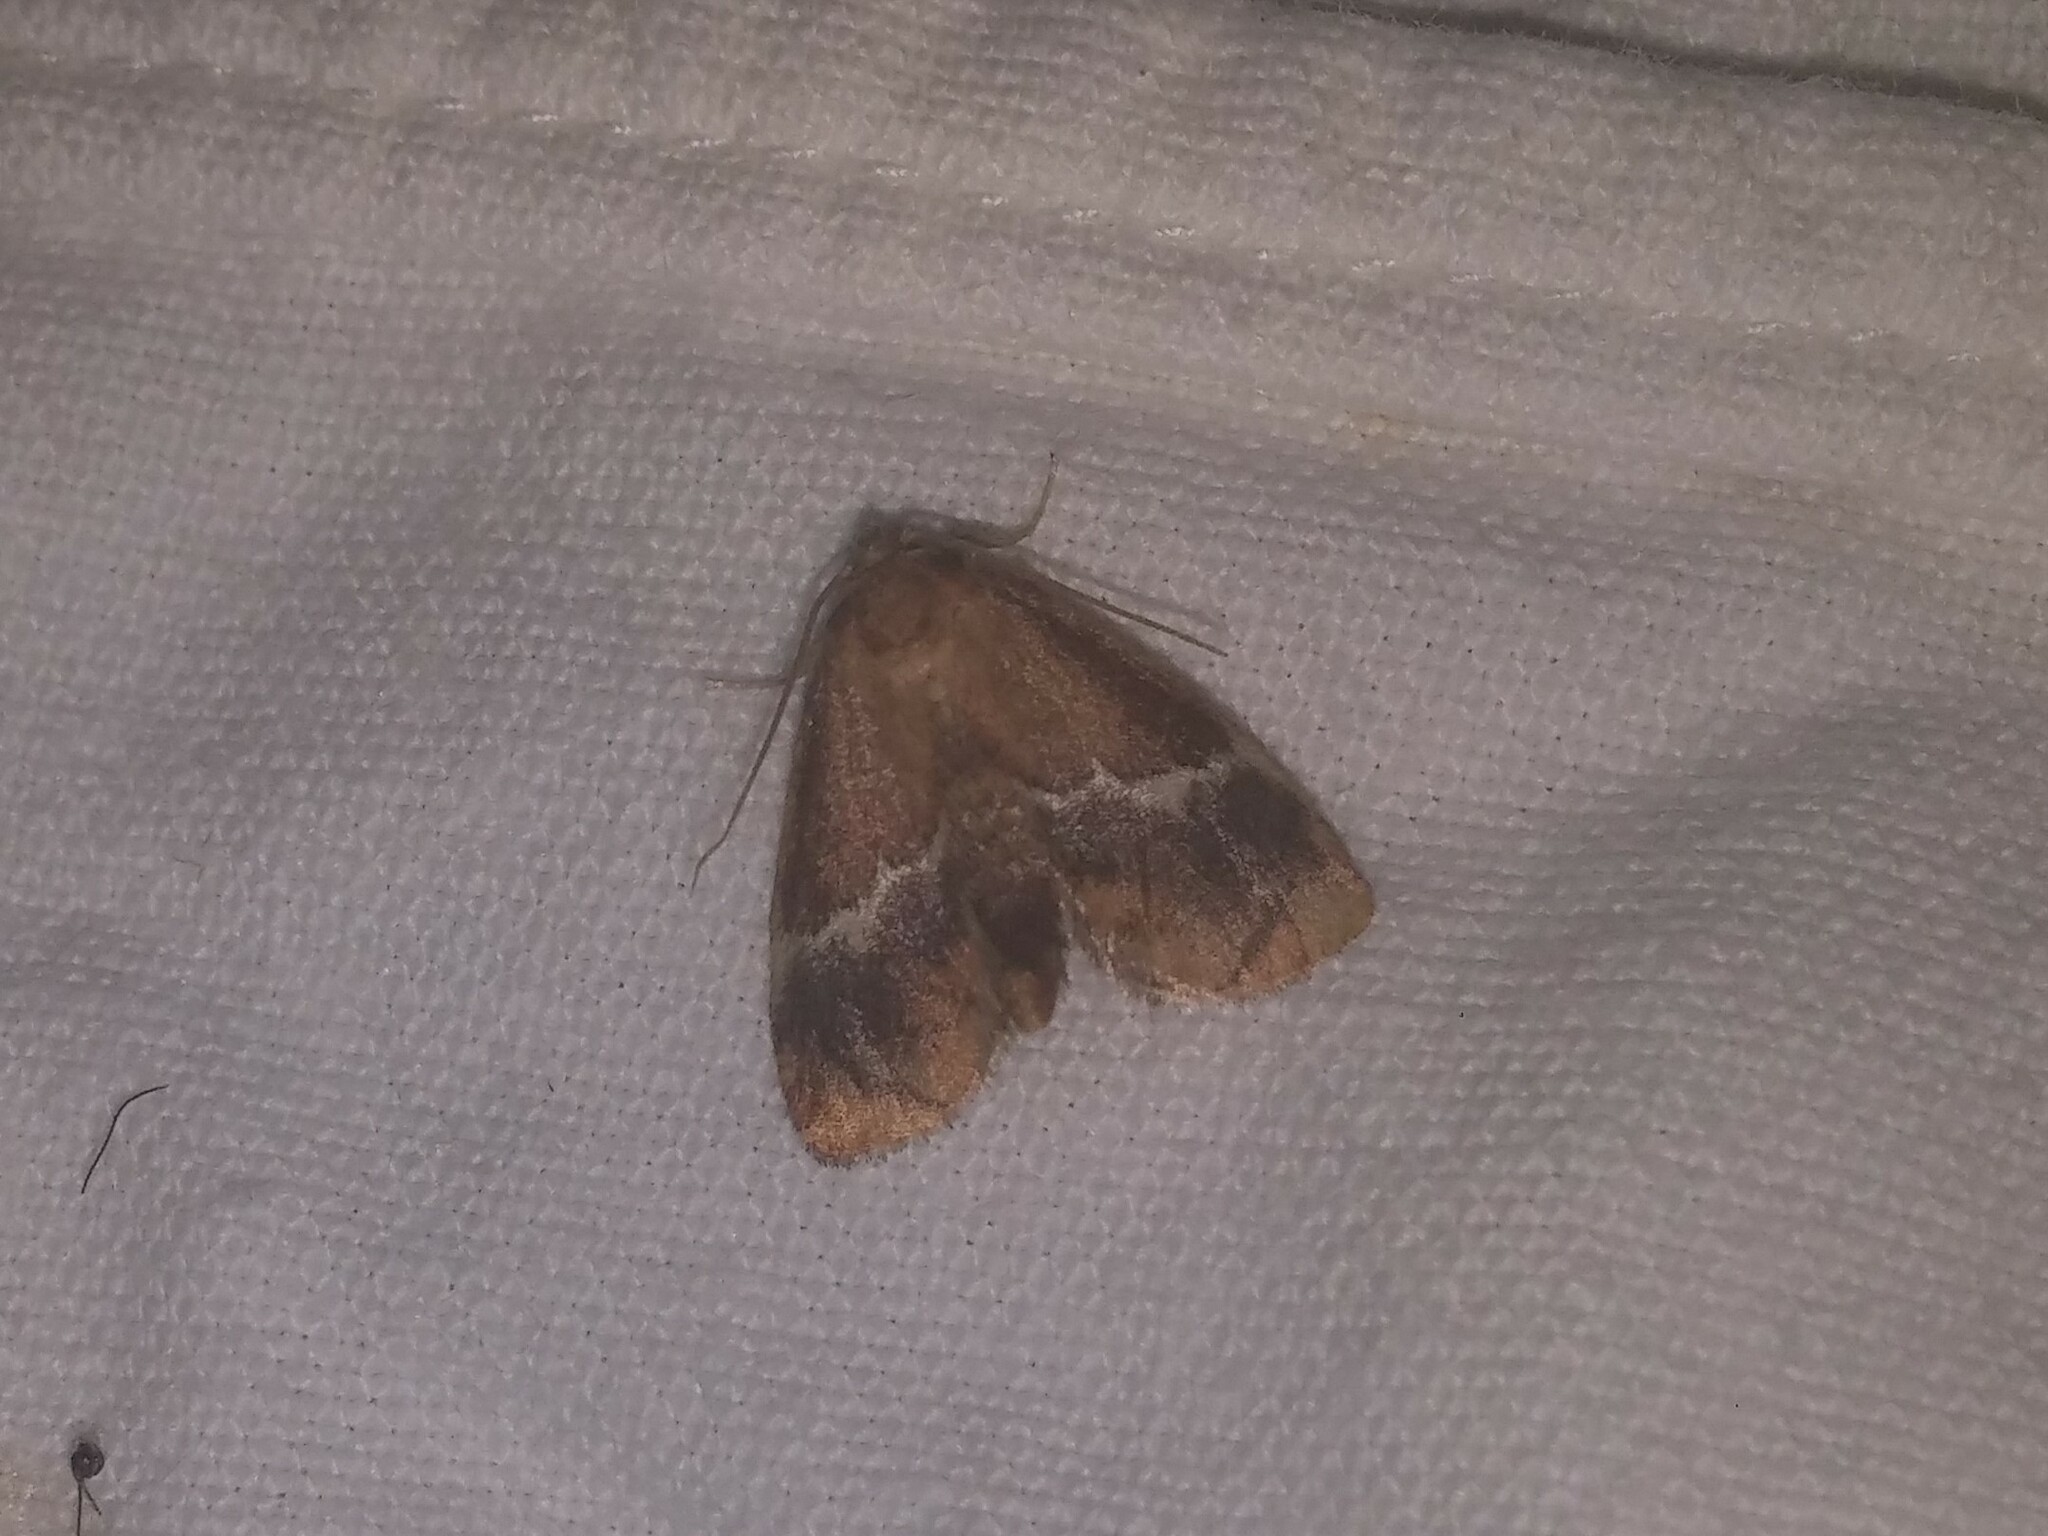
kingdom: Animalia
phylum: Arthropoda
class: Insecta
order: Lepidoptera
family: Limacodidae
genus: Lithacodes
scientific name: Lithacodes fasciola
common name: Yellow-shouldered slug moth
